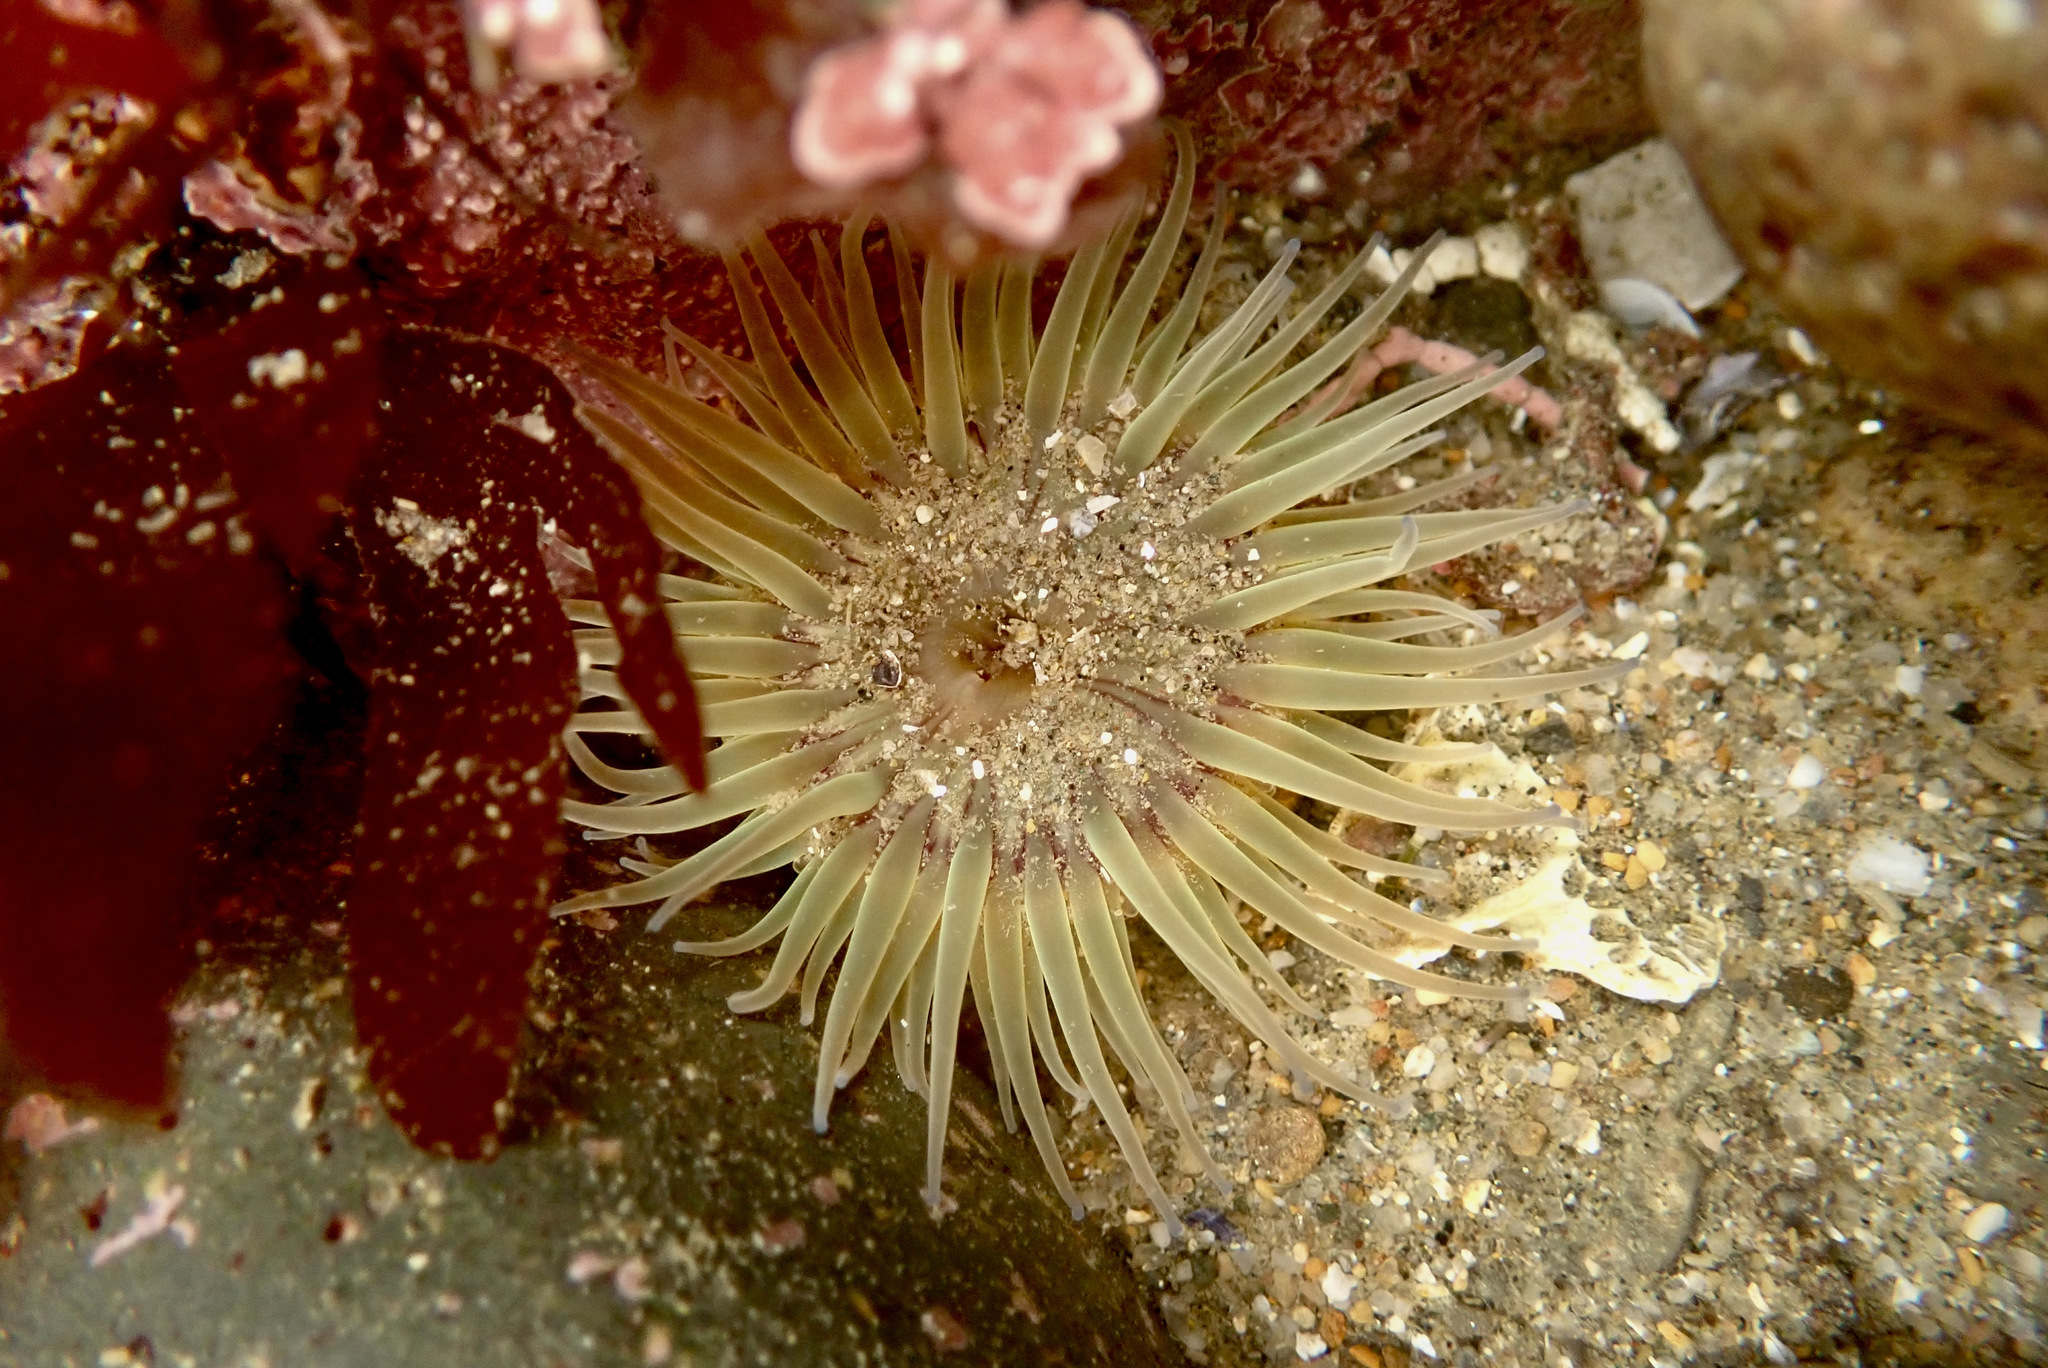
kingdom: Animalia
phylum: Cnidaria
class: Anthozoa
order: Actiniaria
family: Actiniidae
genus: Anthopleura
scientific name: Anthopleura artemisia
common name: Buried sea anemone
